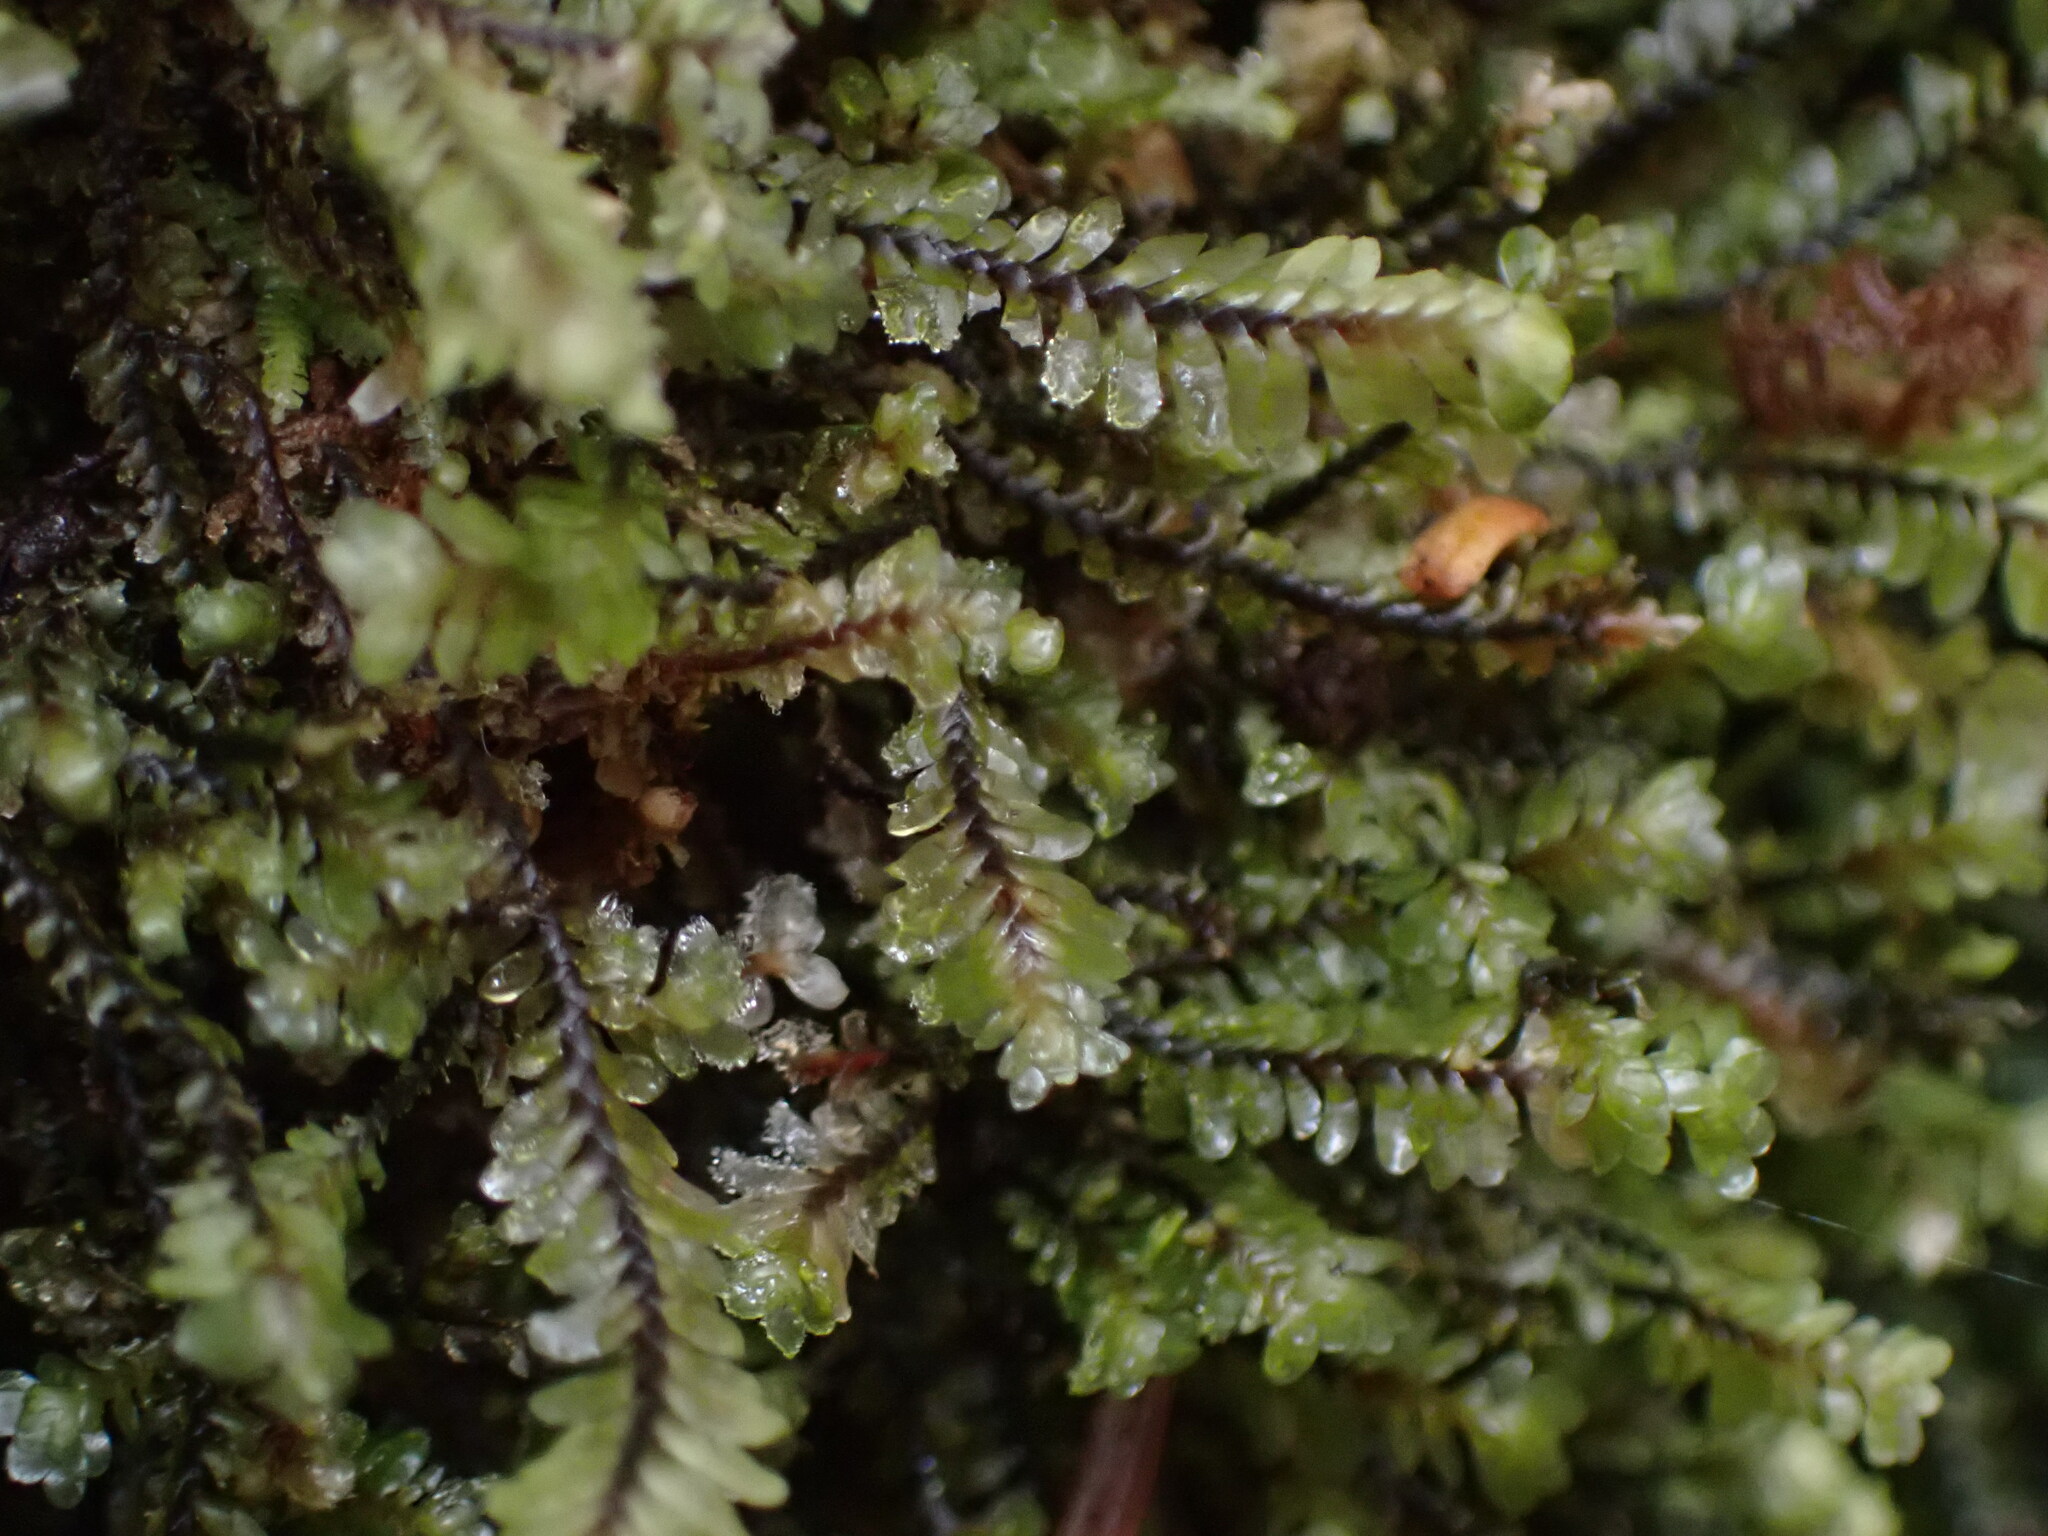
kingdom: Plantae
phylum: Marchantiophyta
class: Jungermanniopsida
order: Jungermanniales
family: Scapaniaceae
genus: Macrodiplophyllum
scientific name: Macrodiplophyllum rubrum
